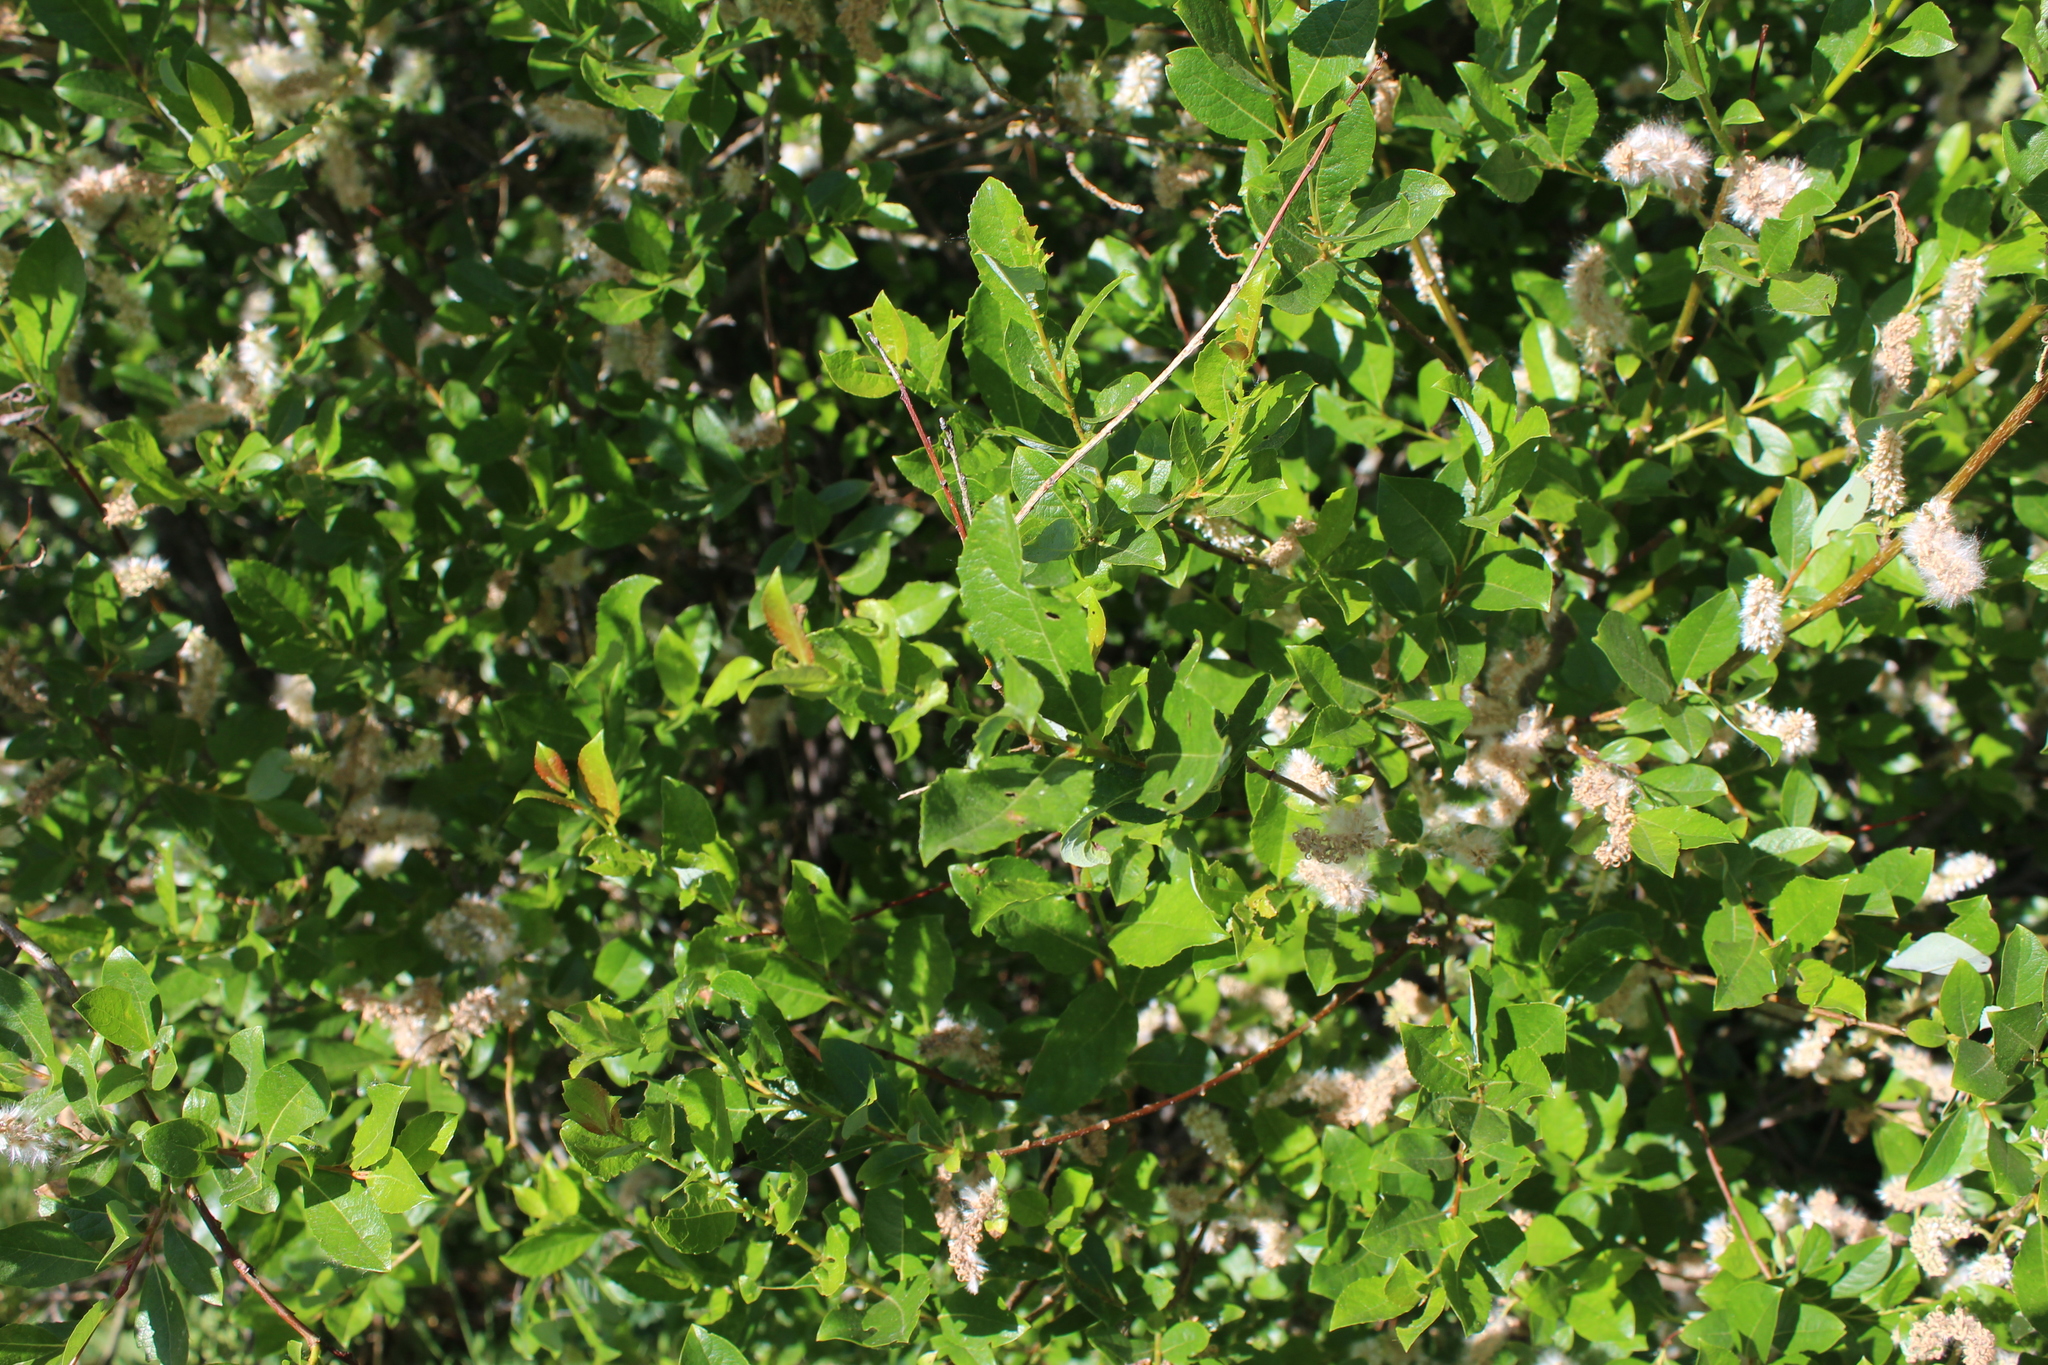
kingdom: Plantae
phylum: Tracheophyta
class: Magnoliopsida
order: Malpighiales
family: Salicaceae
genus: Salix
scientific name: Salix myrsinifolia
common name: Dark-leaved willow
